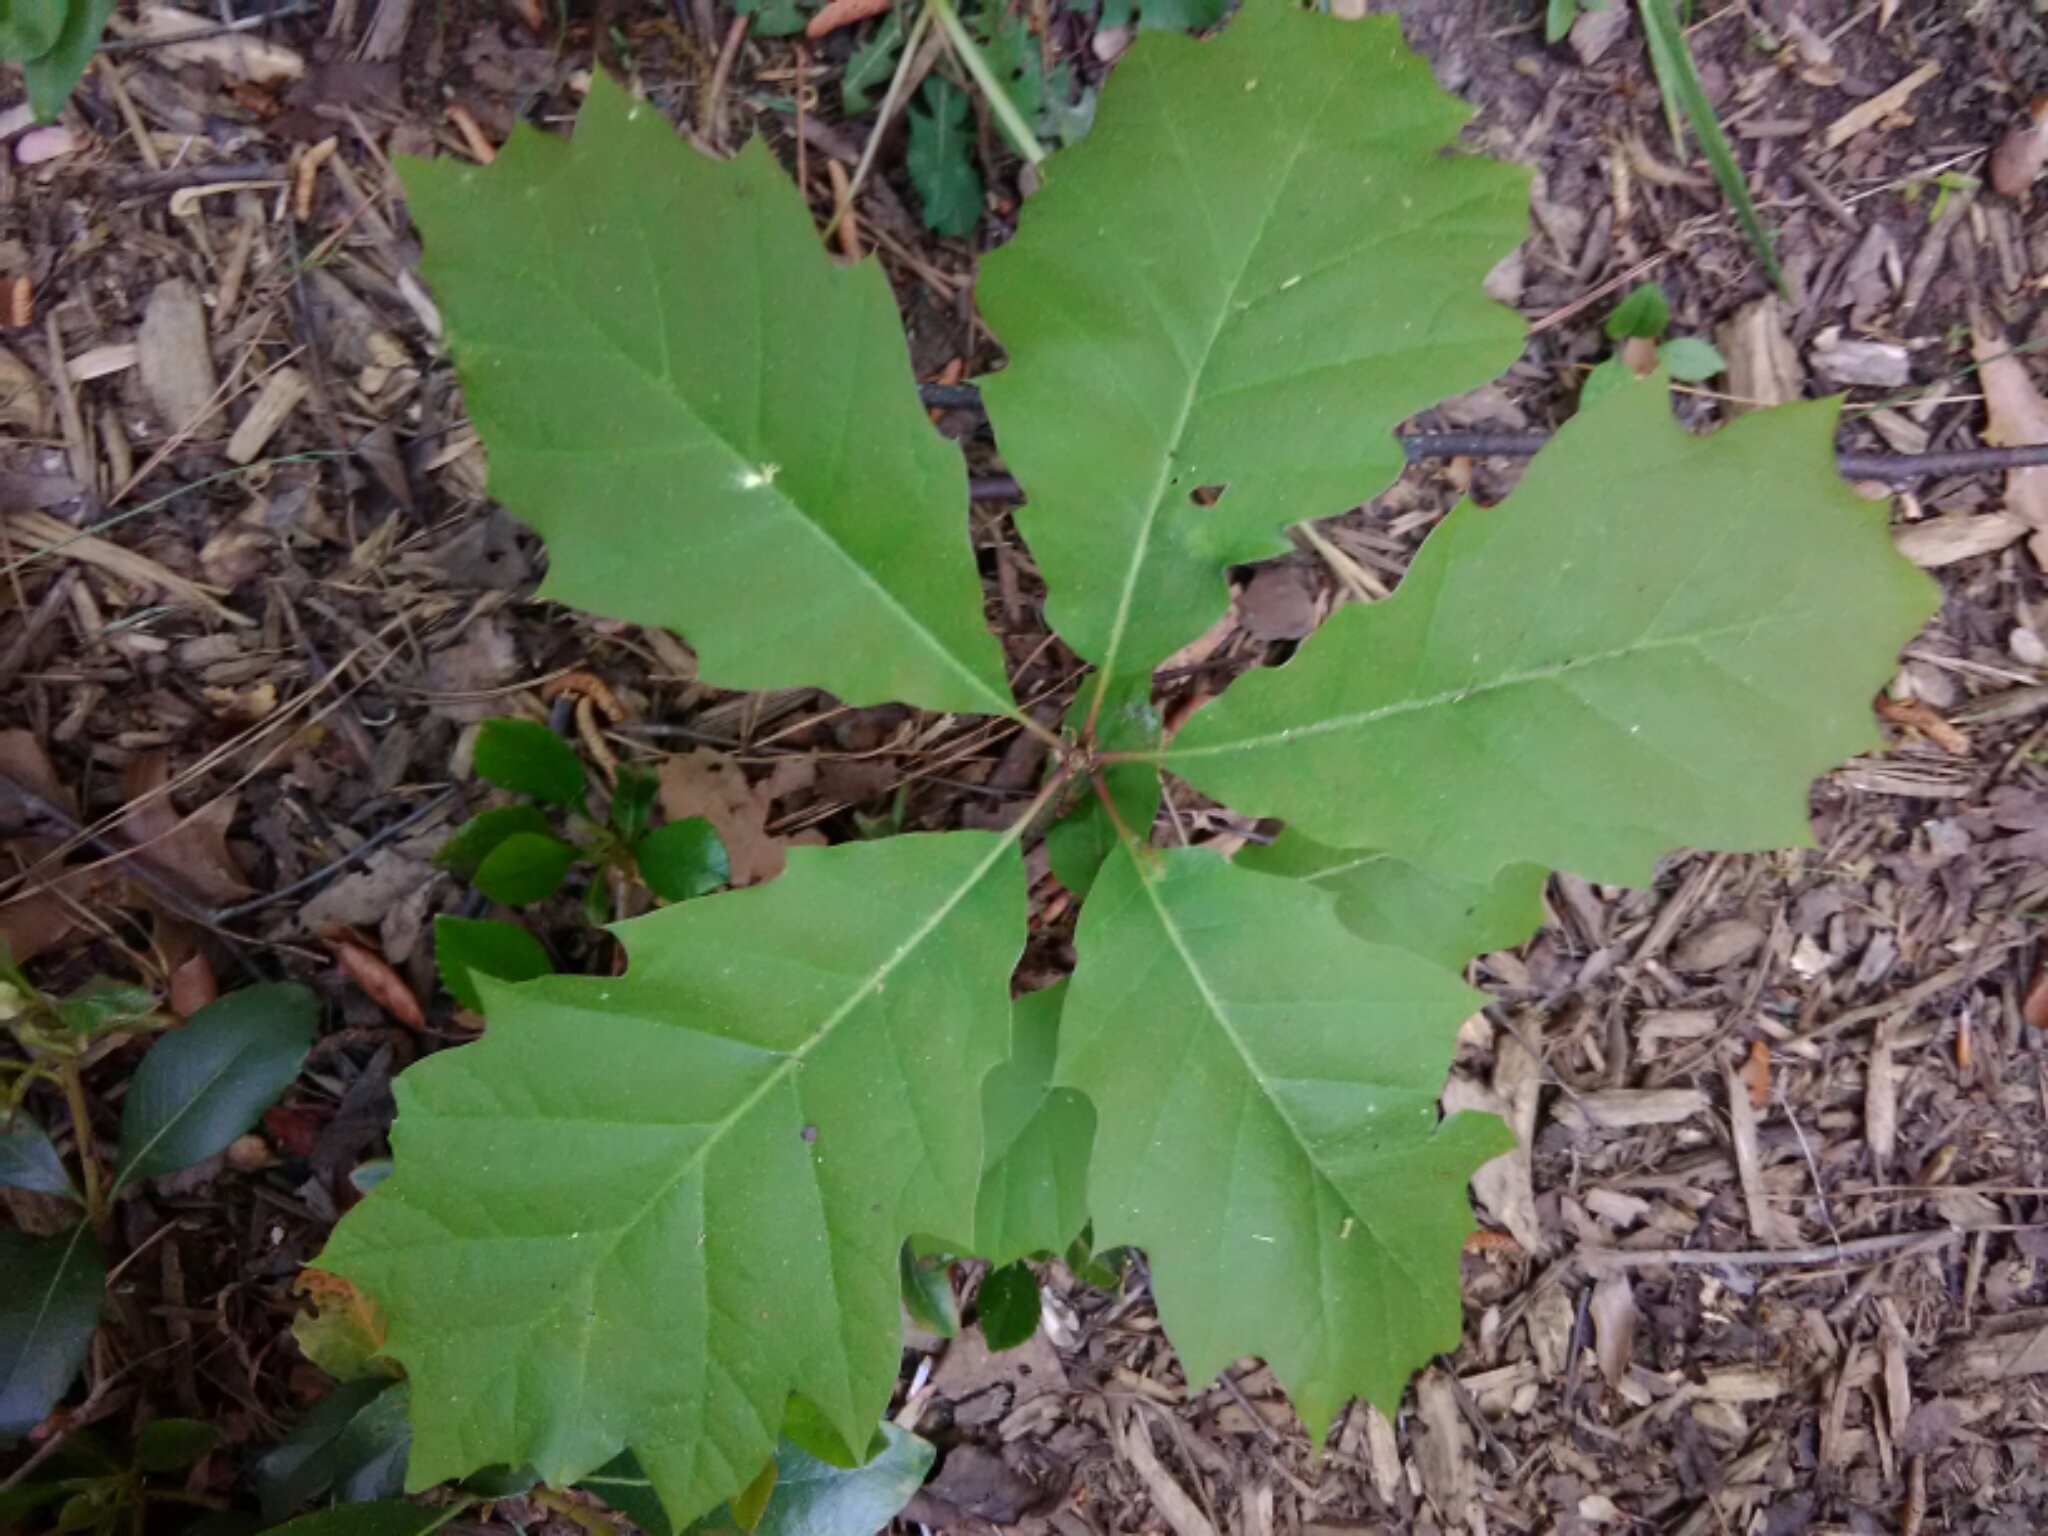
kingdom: Plantae
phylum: Tracheophyta
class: Magnoliopsida
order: Fagales
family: Fagaceae
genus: Quercus
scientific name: Quercus rubra
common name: Red oak
